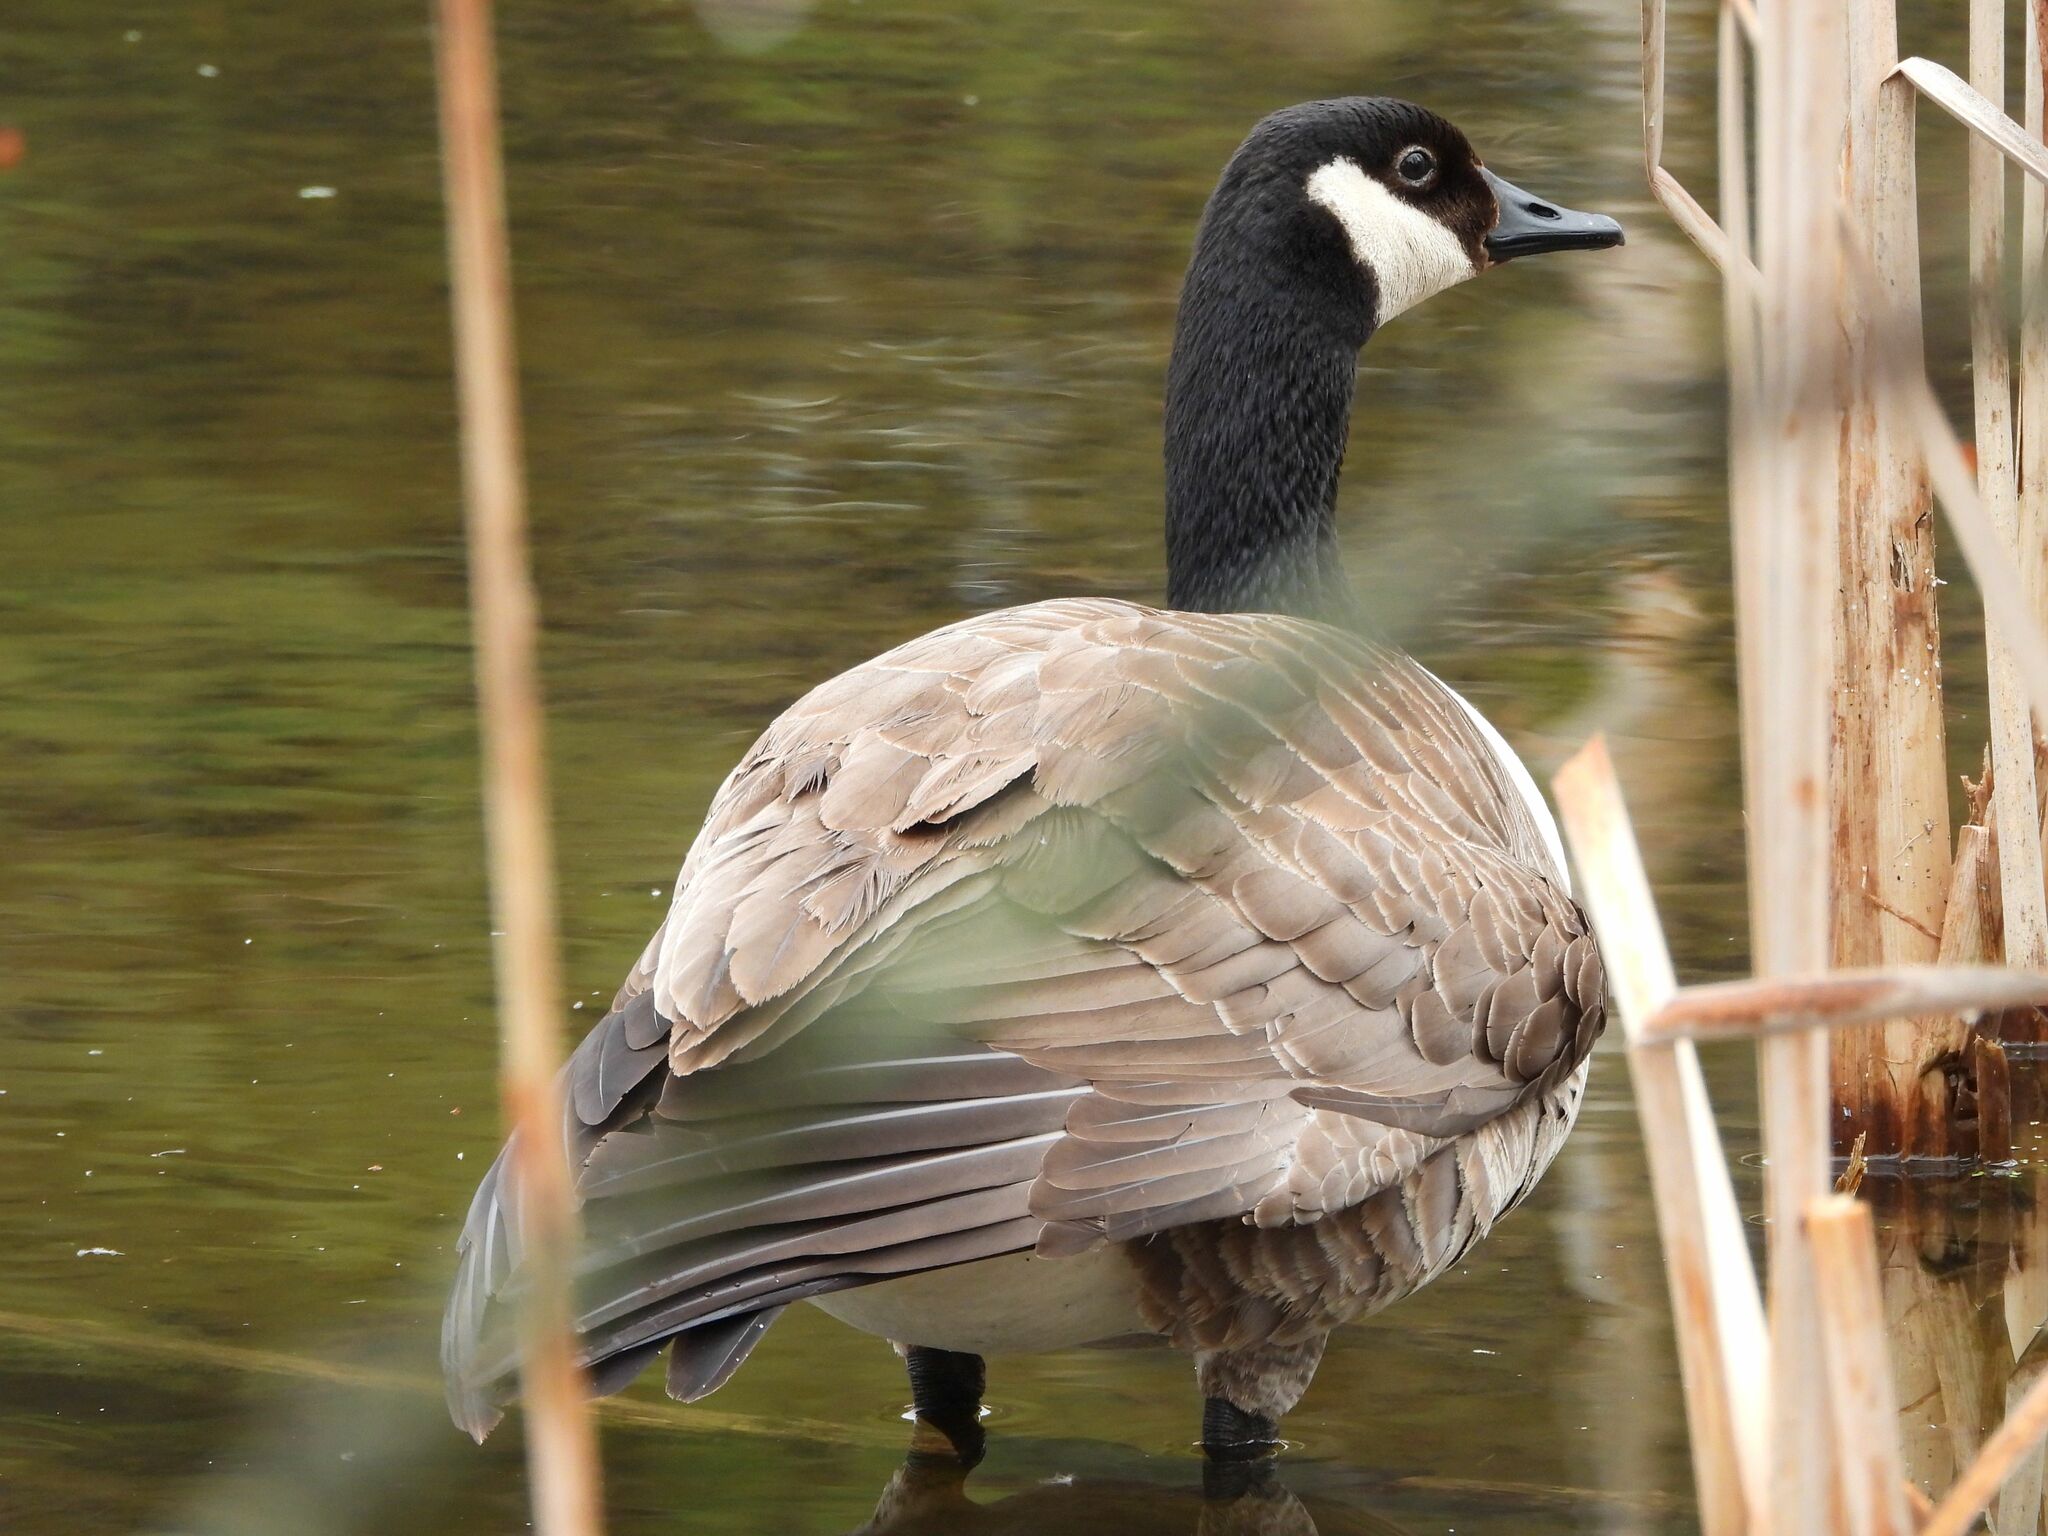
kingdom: Animalia
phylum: Chordata
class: Aves
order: Anseriformes
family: Anatidae
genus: Branta
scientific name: Branta canadensis
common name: Canada goose
